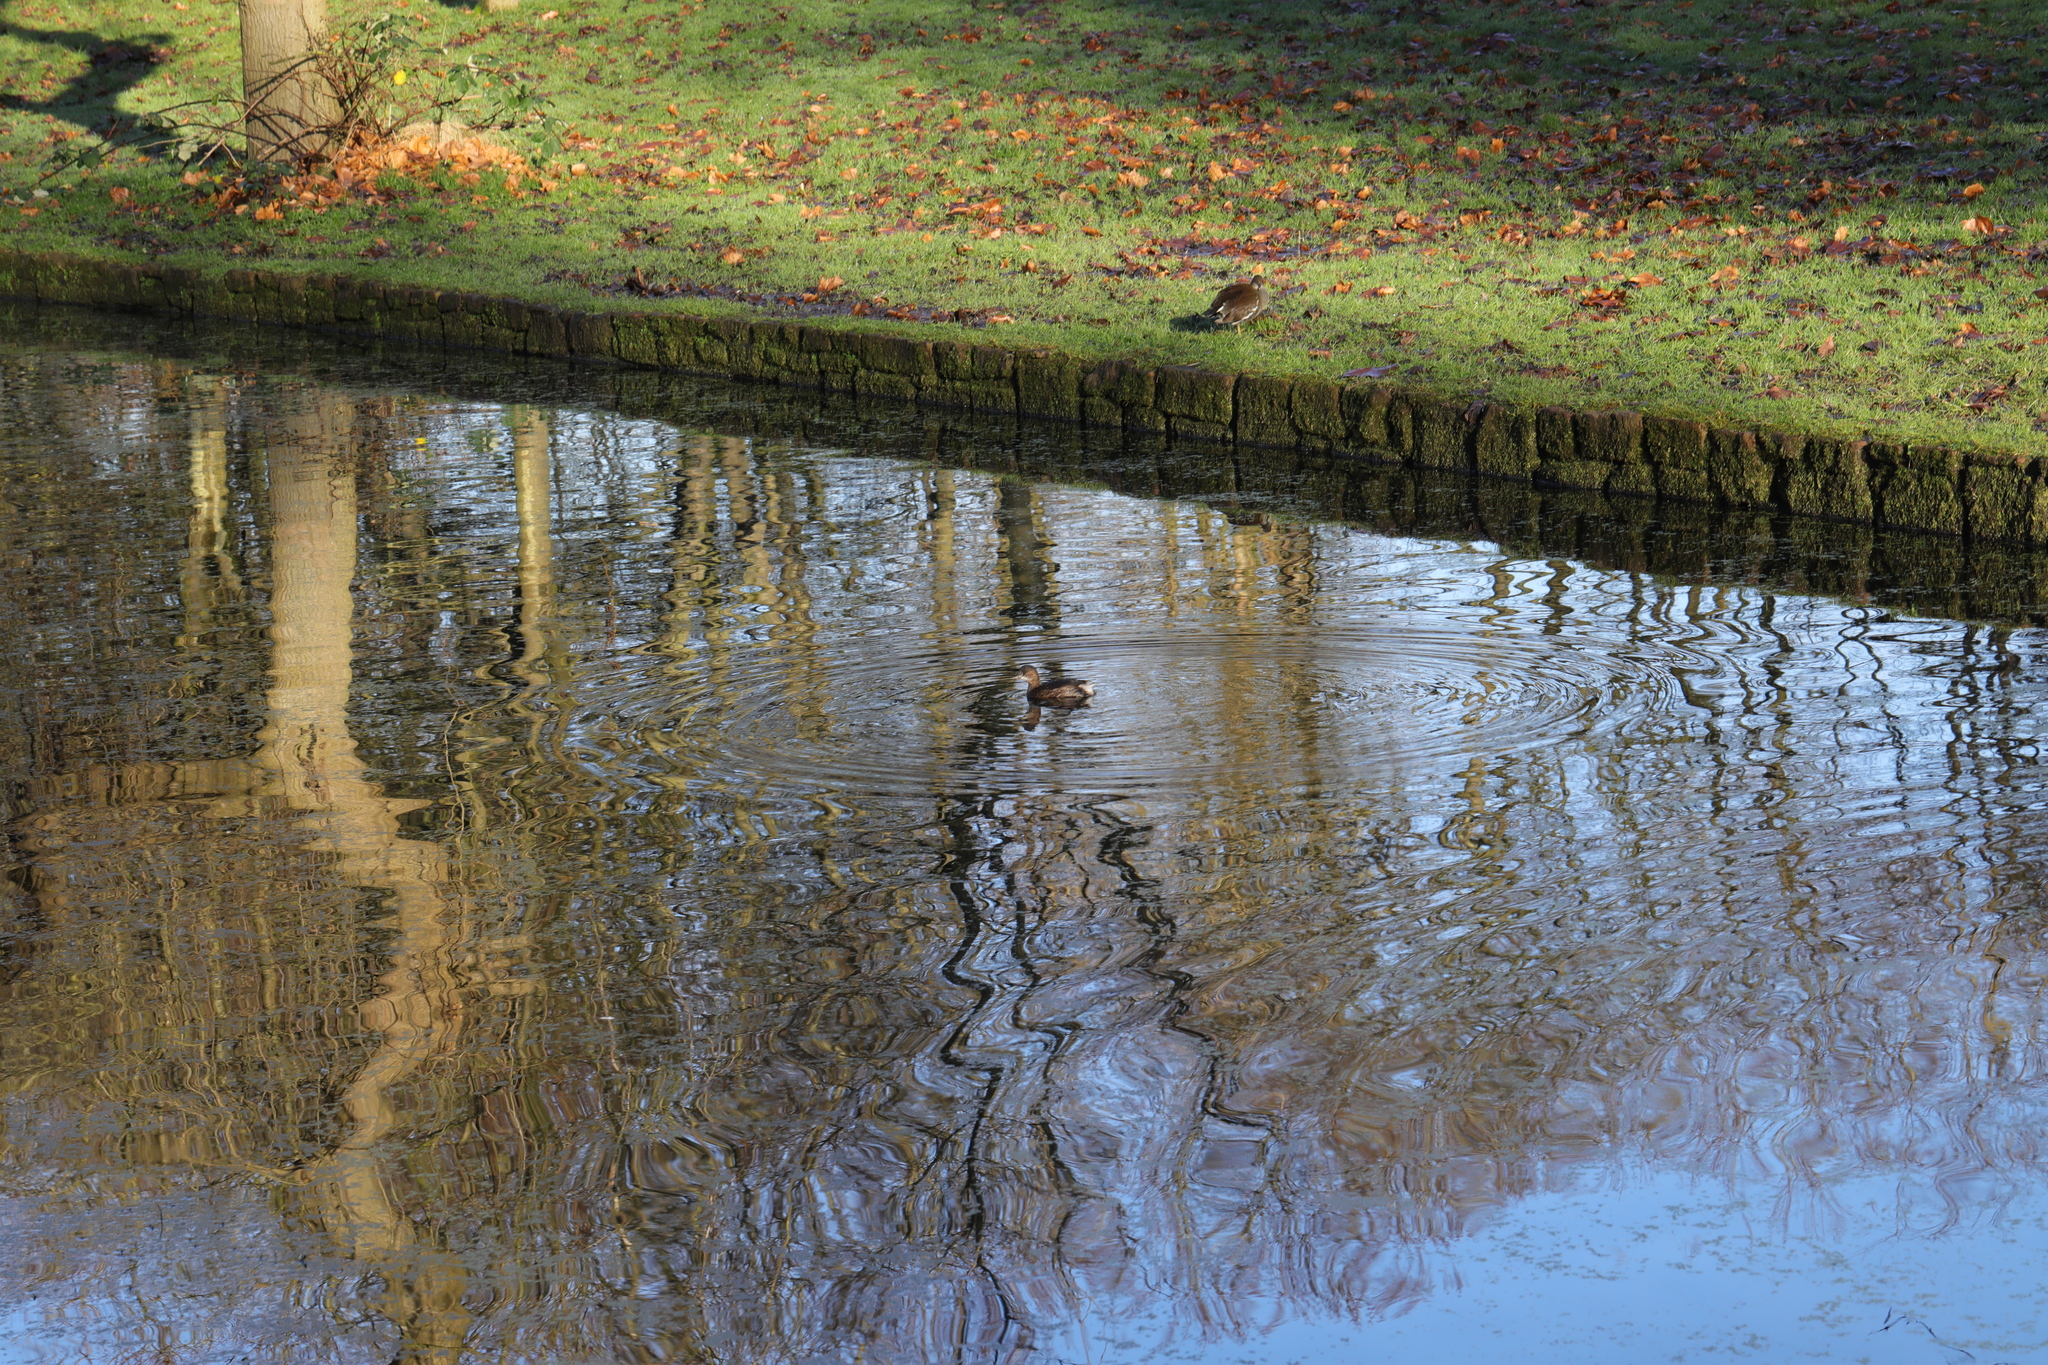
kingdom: Animalia
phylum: Chordata
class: Aves
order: Podicipediformes
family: Podicipedidae
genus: Tachybaptus
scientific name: Tachybaptus ruficollis
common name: Little grebe
